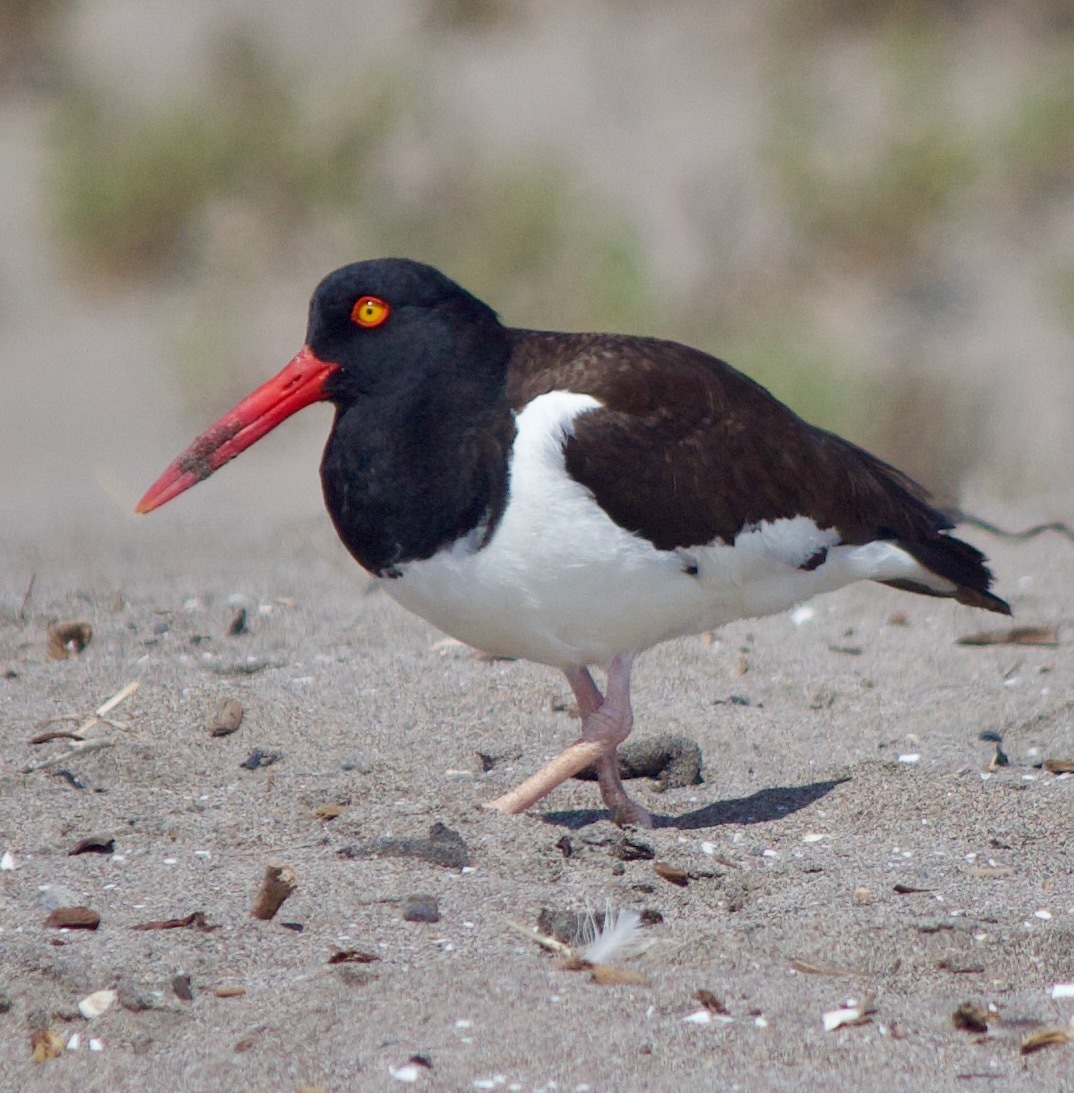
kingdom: Animalia
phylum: Chordata
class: Aves
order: Charadriiformes
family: Haematopodidae
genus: Haematopus
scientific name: Haematopus palliatus
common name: American oystercatcher
